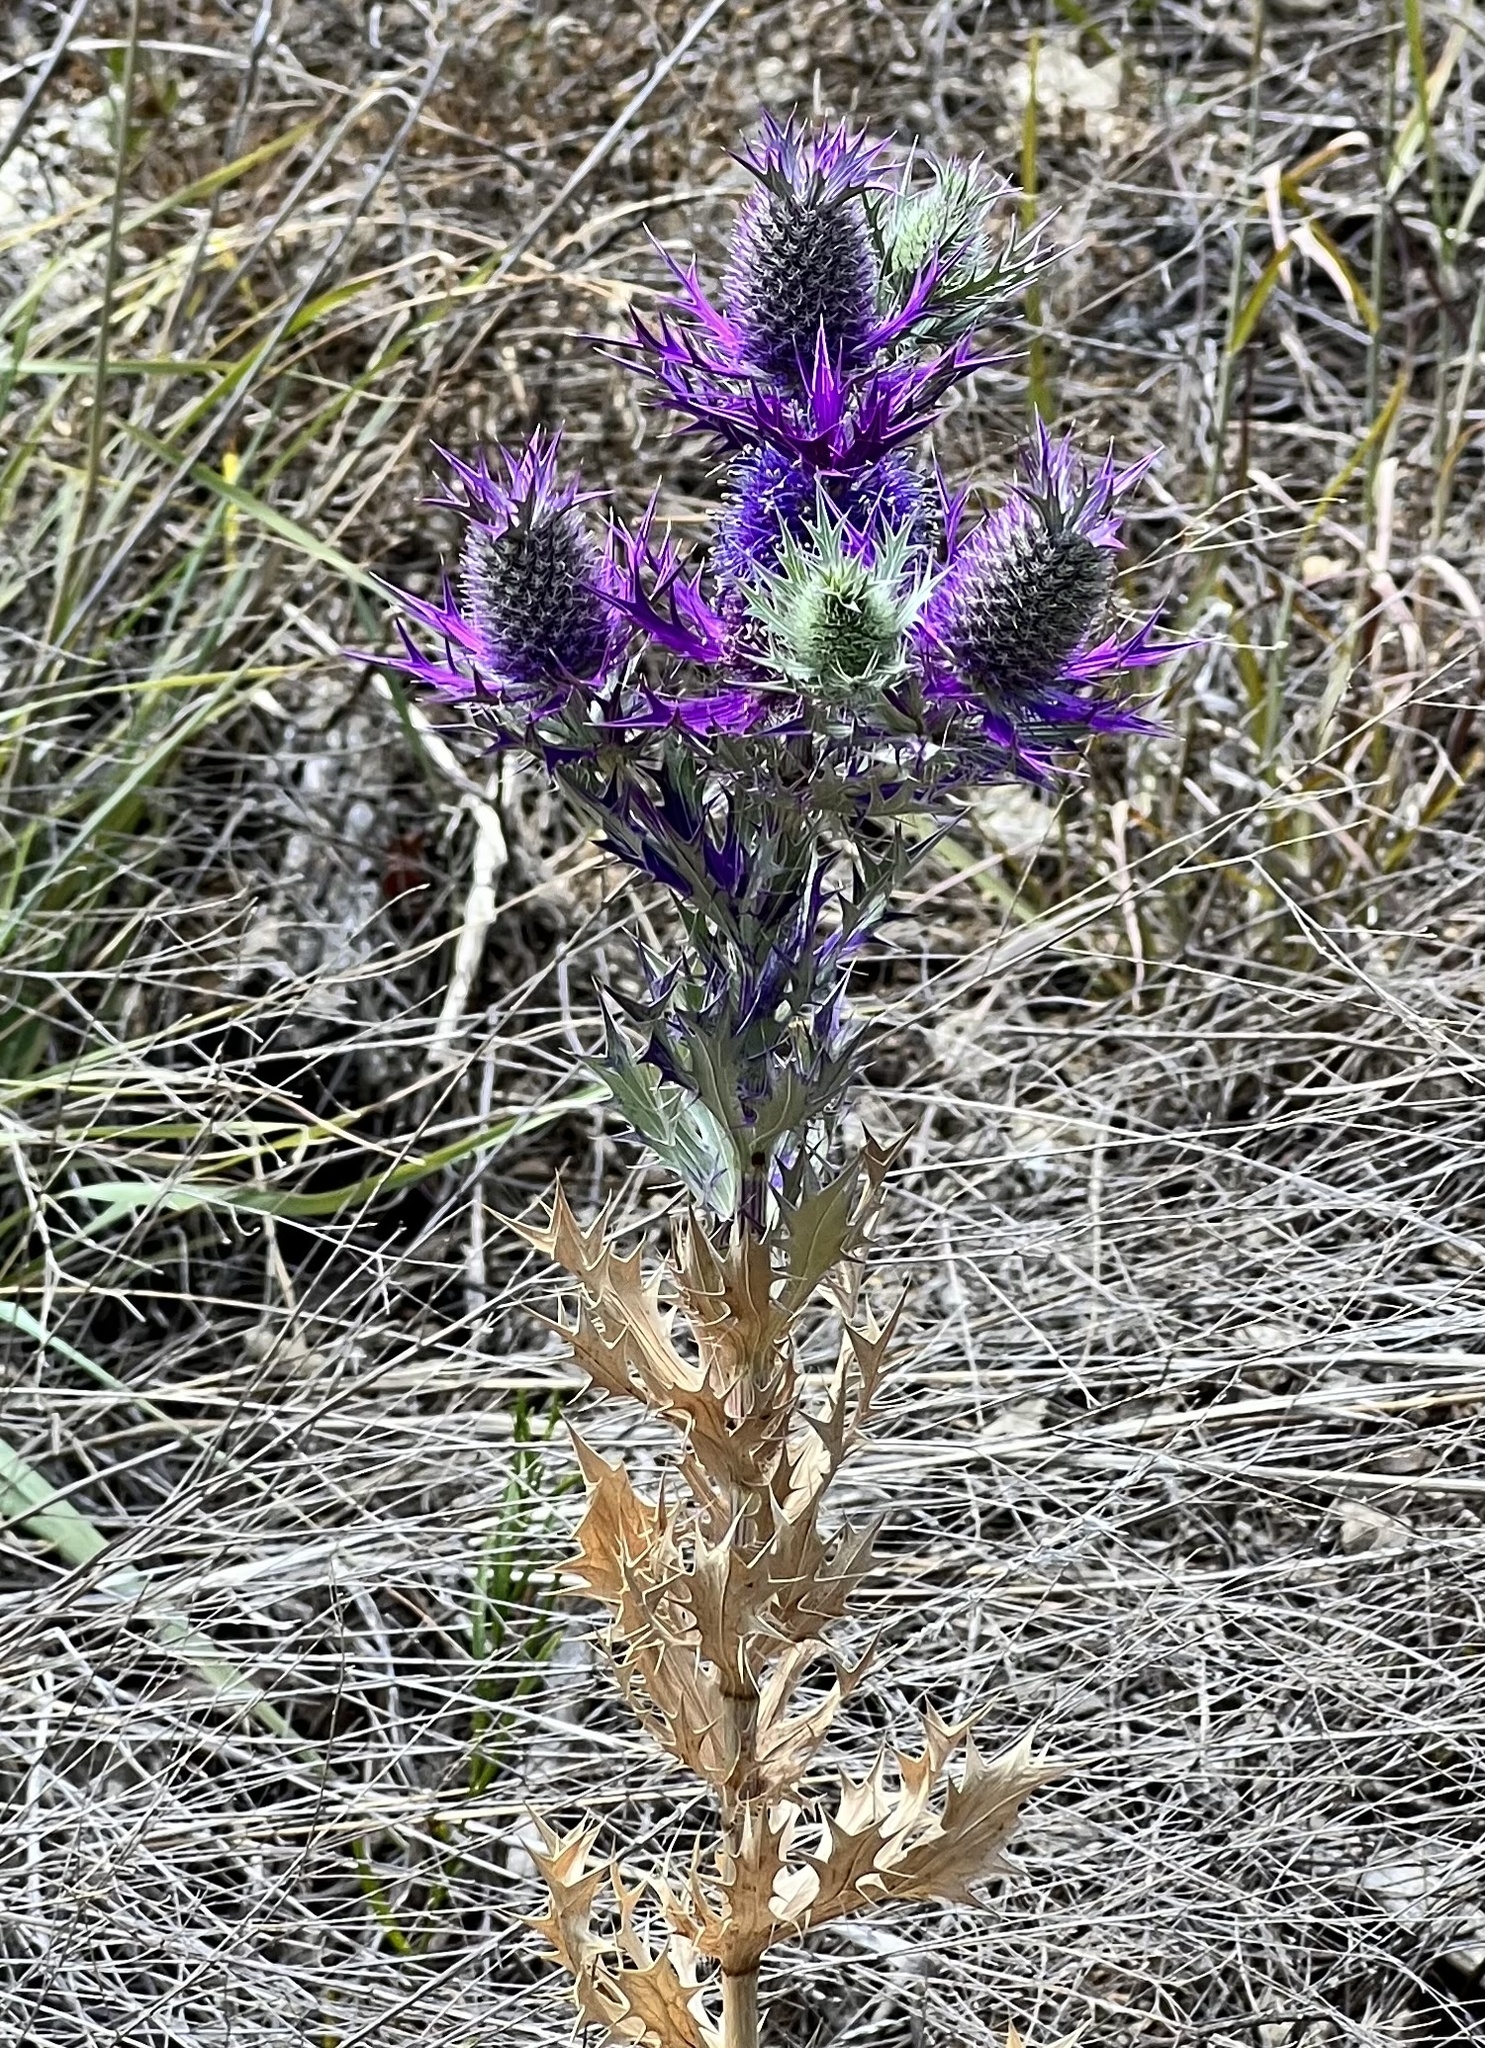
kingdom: Plantae
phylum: Tracheophyta
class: Magnoliopsida
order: Apiales
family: Apiaceae
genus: Eryngium
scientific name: Eryngium leavenworthii
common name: Leavenworth's eryngo
